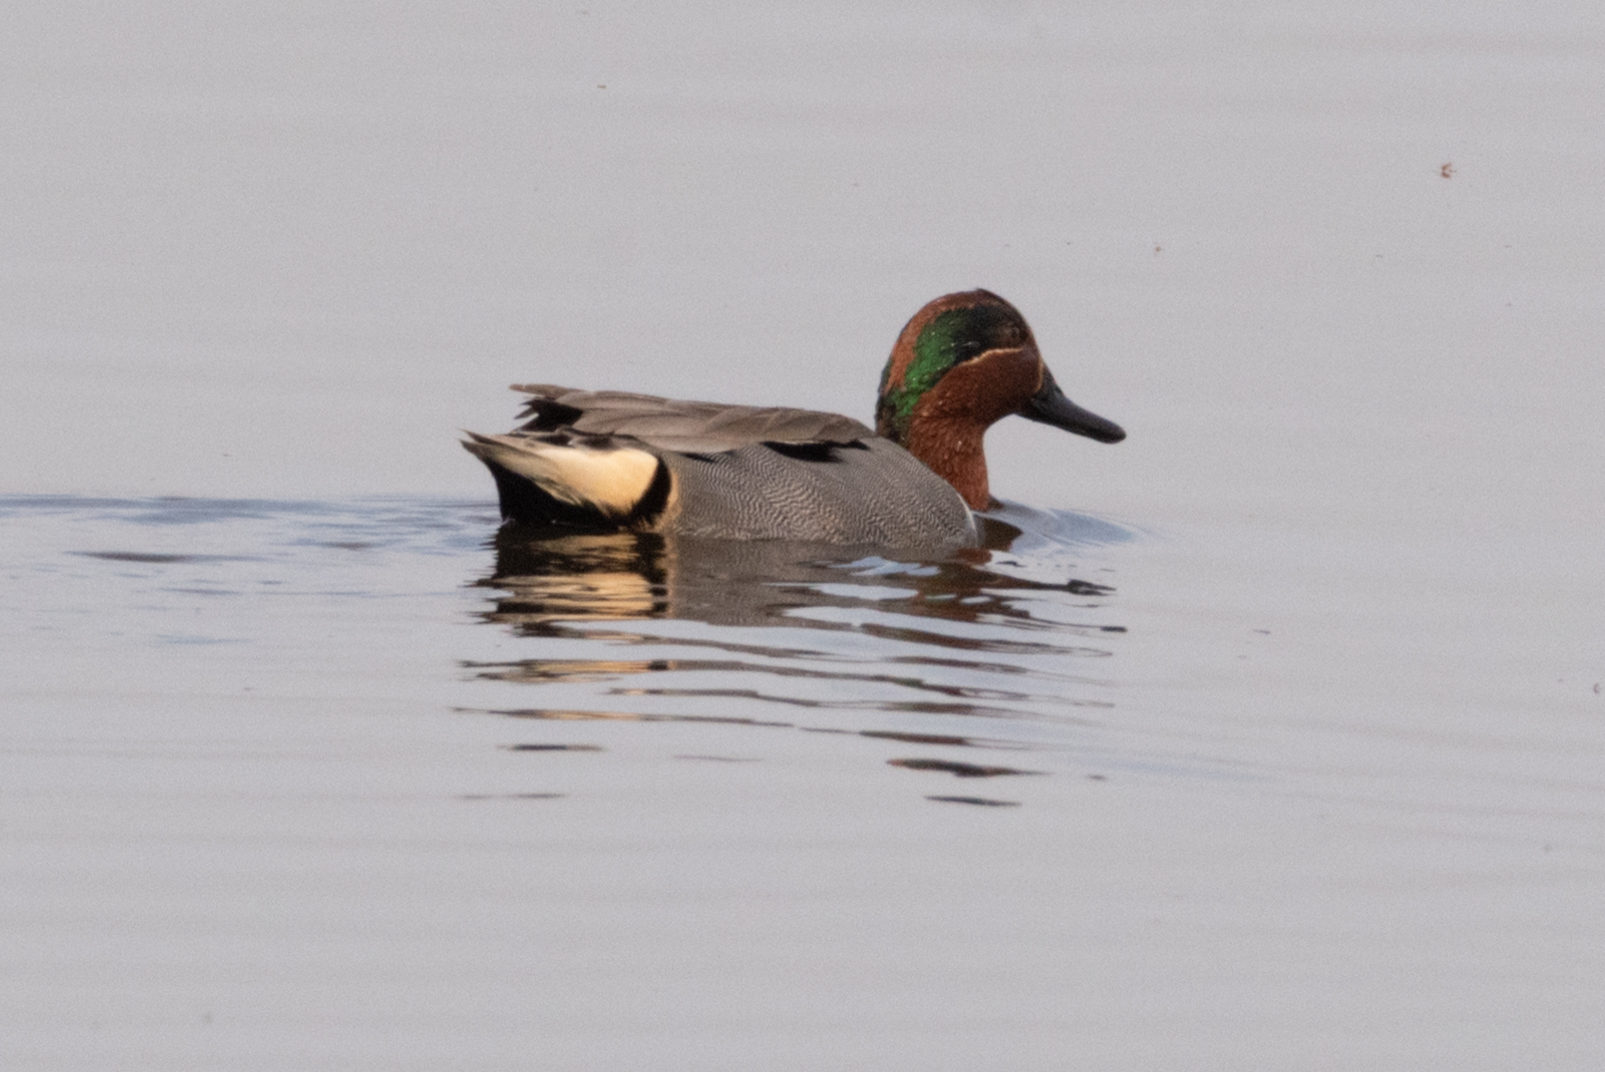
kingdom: Animalia
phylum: Chordata
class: Aves
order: Anseriformes
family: Anatidae
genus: Anas
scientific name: Anas crecca
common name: Eurasian teal
